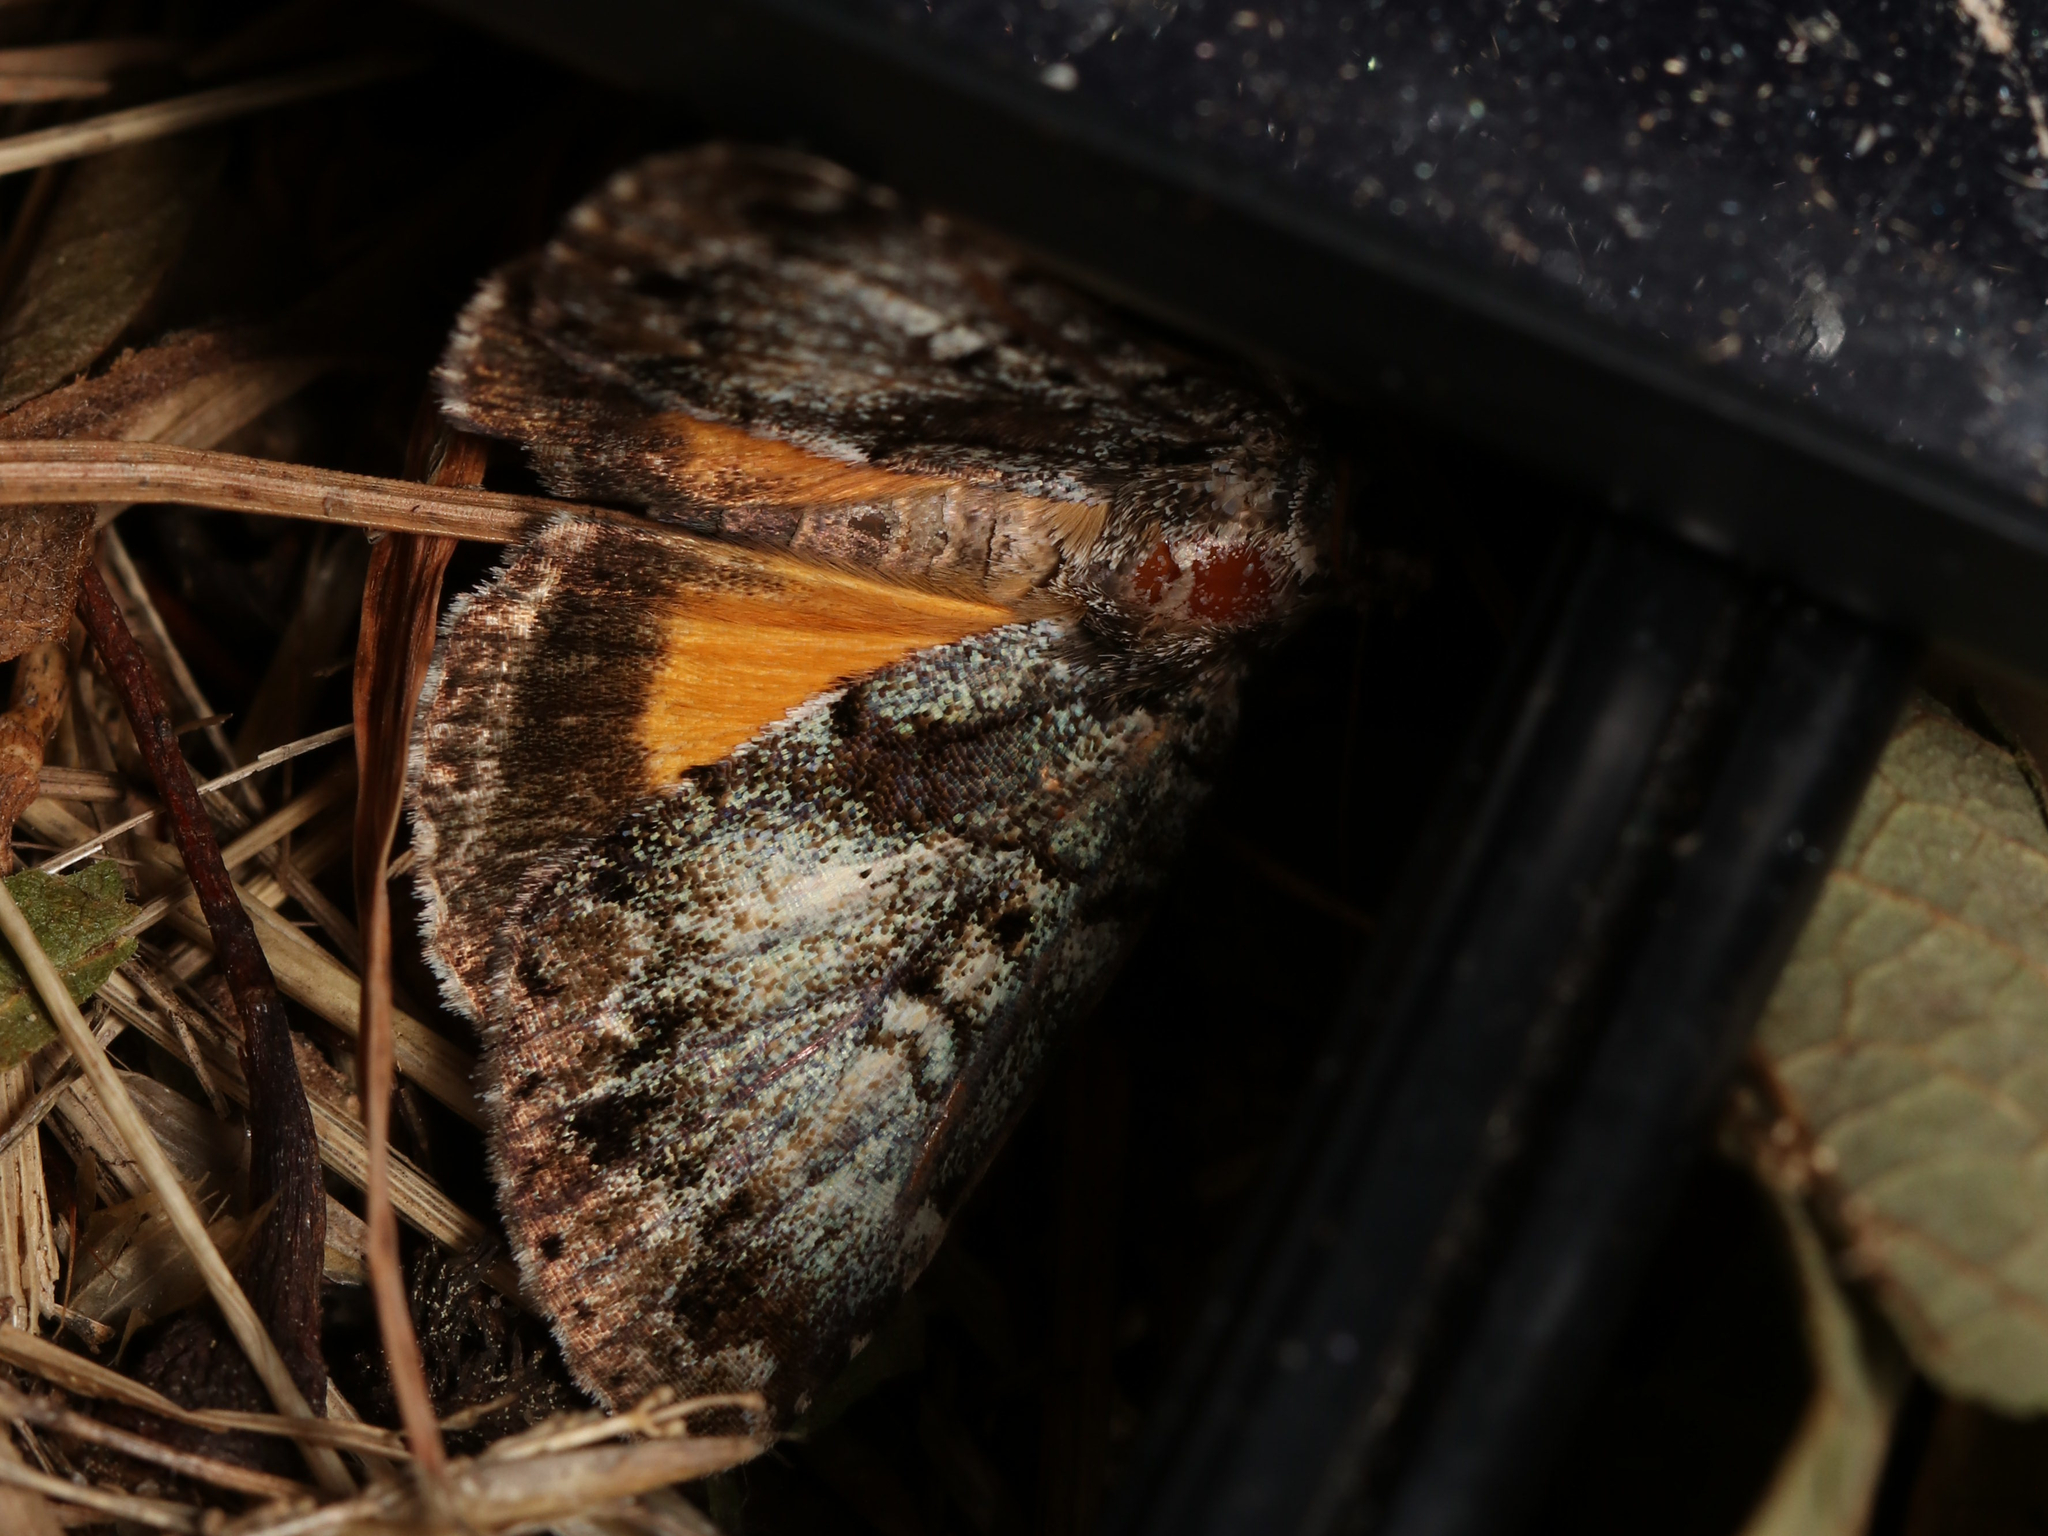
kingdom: Animalia
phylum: Arthropoda
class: Insecta
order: Lepidoptera
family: Erebidae
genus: Allotria
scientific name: Allotria elonympha
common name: False underwing
